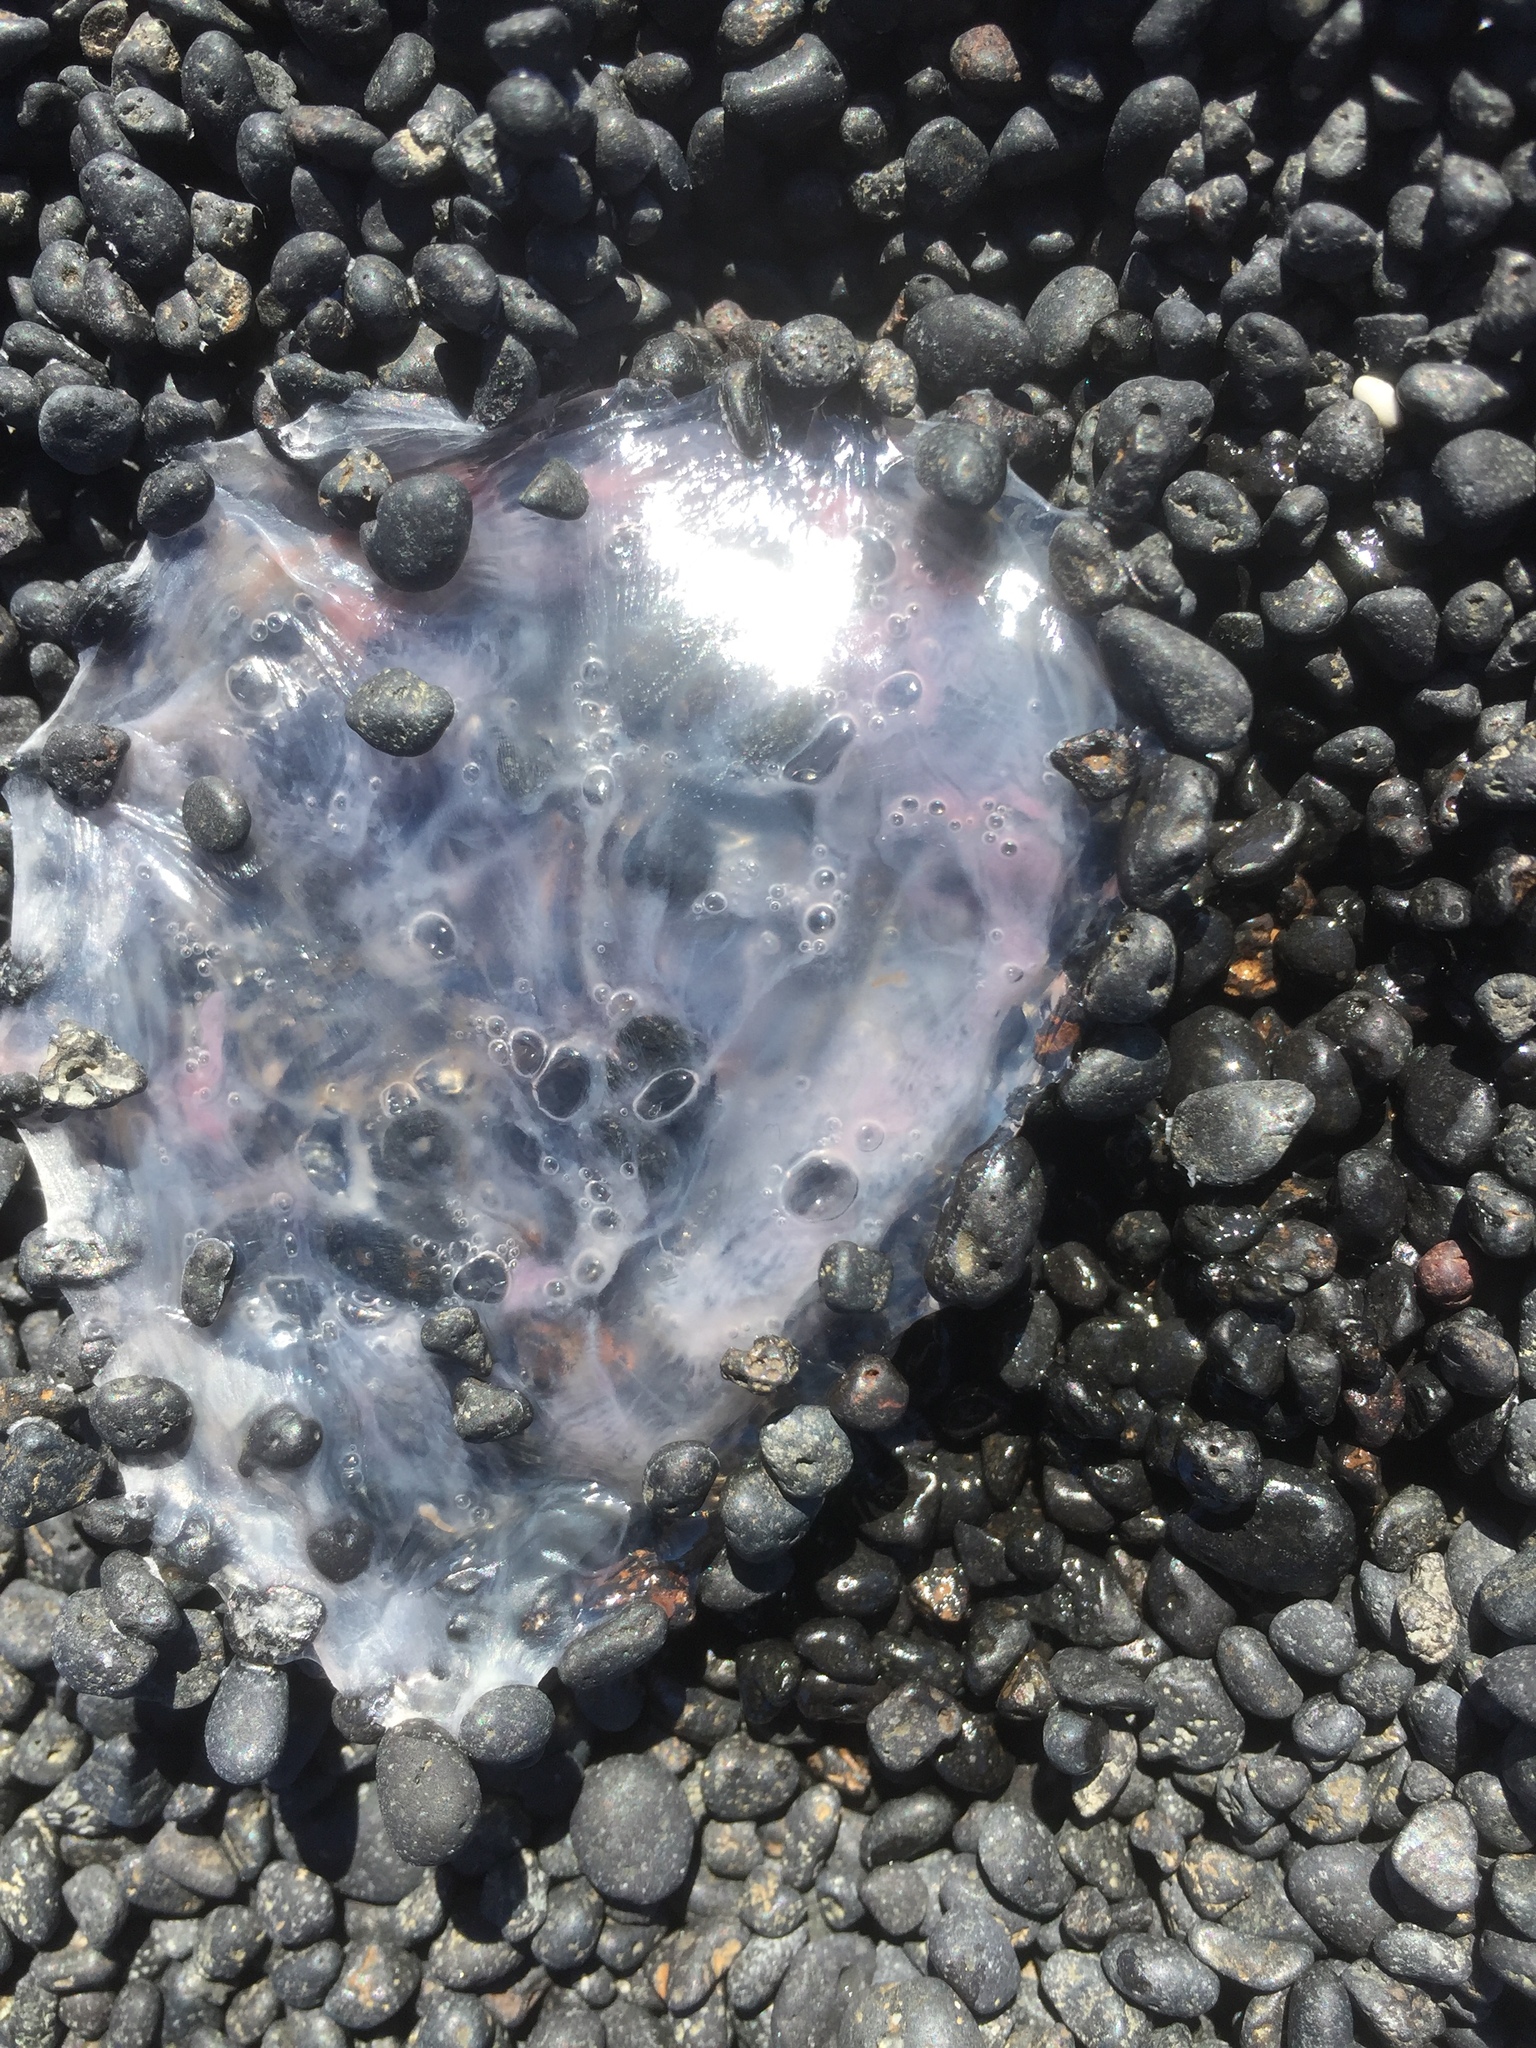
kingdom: Animalia
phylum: Cnidaria
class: Scyphozoa
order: Semaeostomeae
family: Pelagiidae
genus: Pelagia
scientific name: Pelagia noctiluca
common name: Mauve stinger
